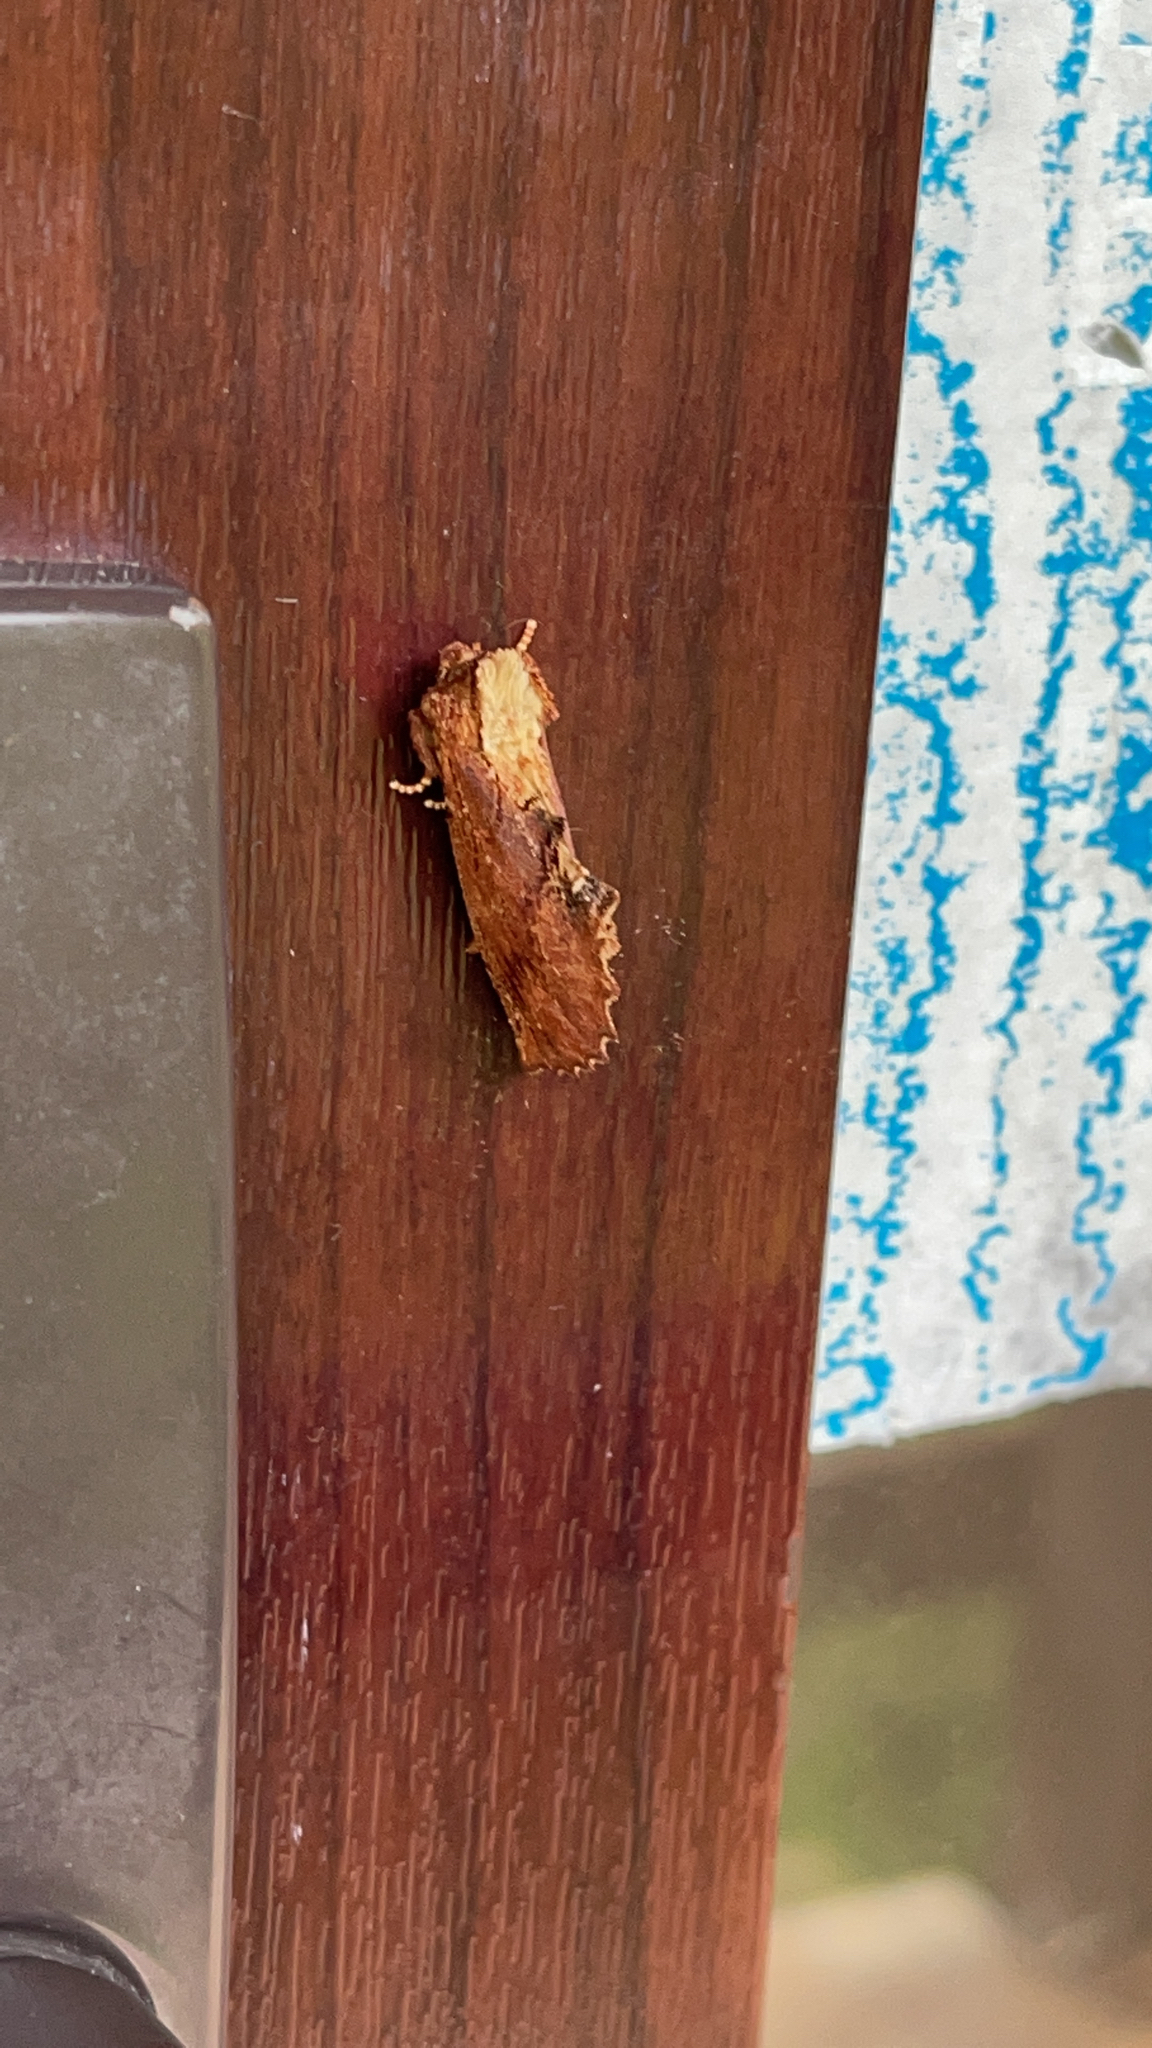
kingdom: Animalia
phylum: Arthropoda
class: Insecta
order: Lepidoptera
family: Notodontidae
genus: Ptilodon
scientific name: Ptilodon capucina
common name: Coxcomb prominent
